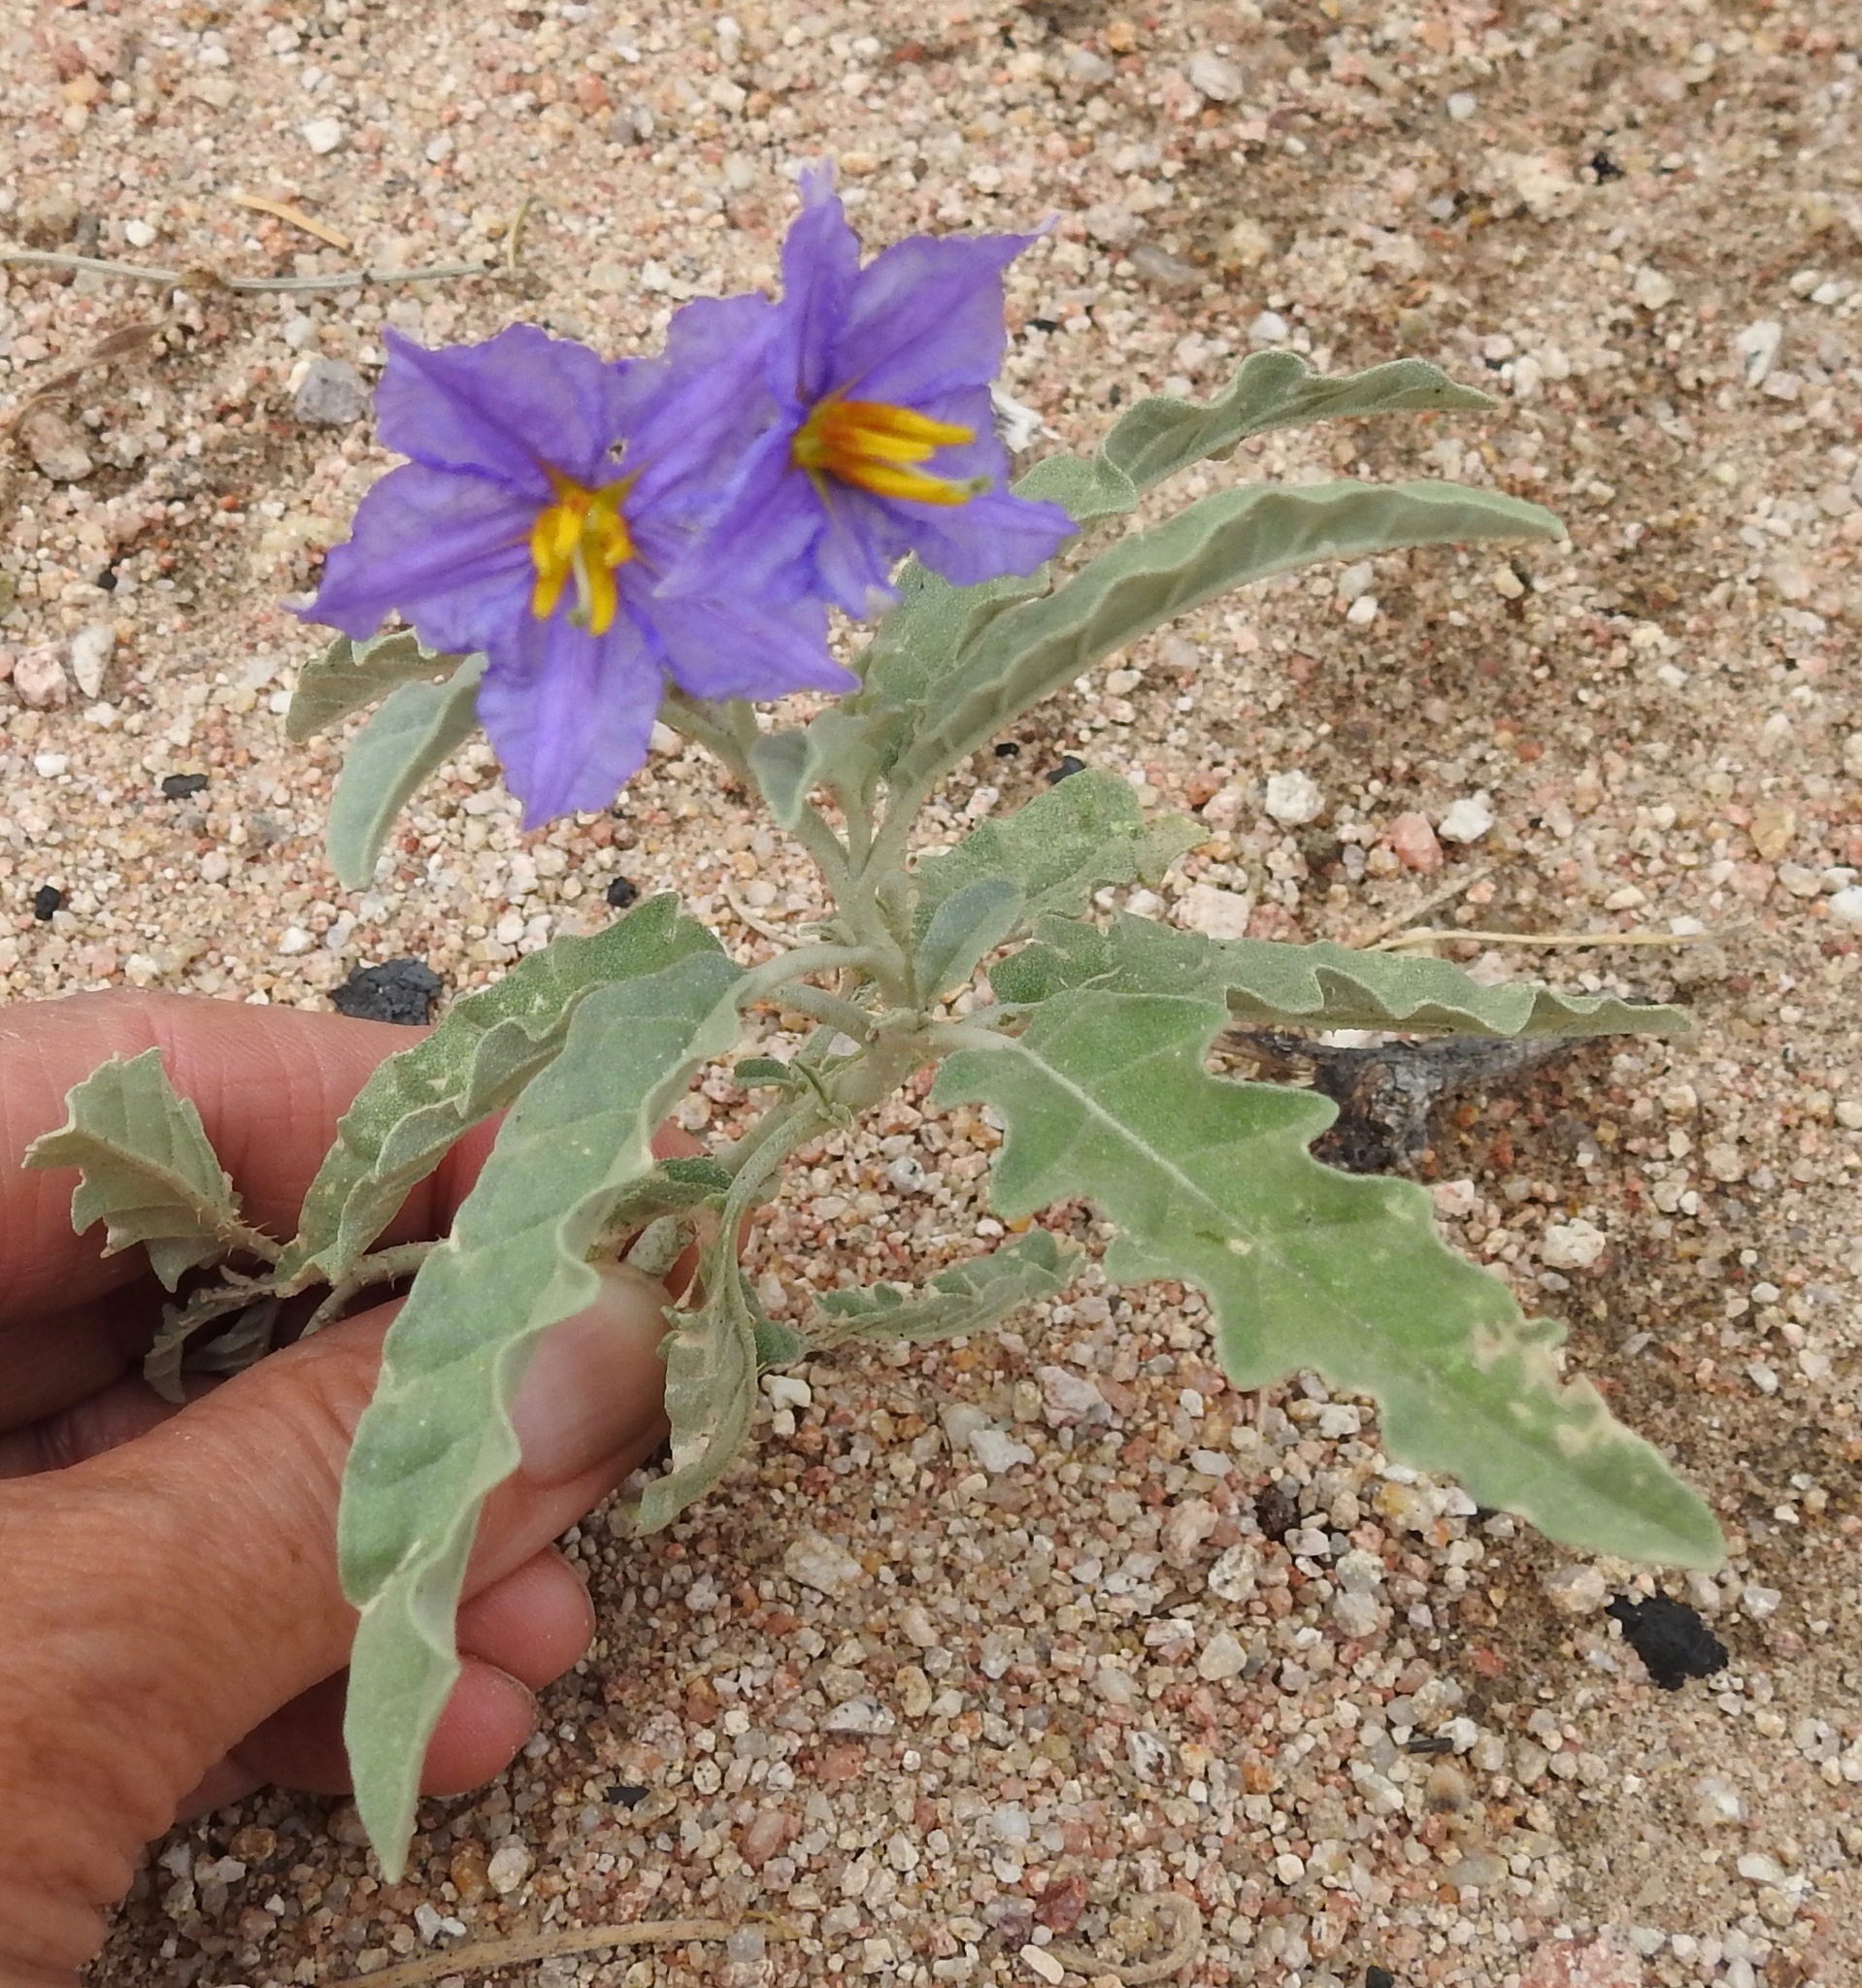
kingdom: Plantae
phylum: Tracheophyta
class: Magnoliopsida
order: Solanales
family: Solanaceae
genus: Solanum
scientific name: Solanum elaeagnifolium
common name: Silverleaf nightshade
